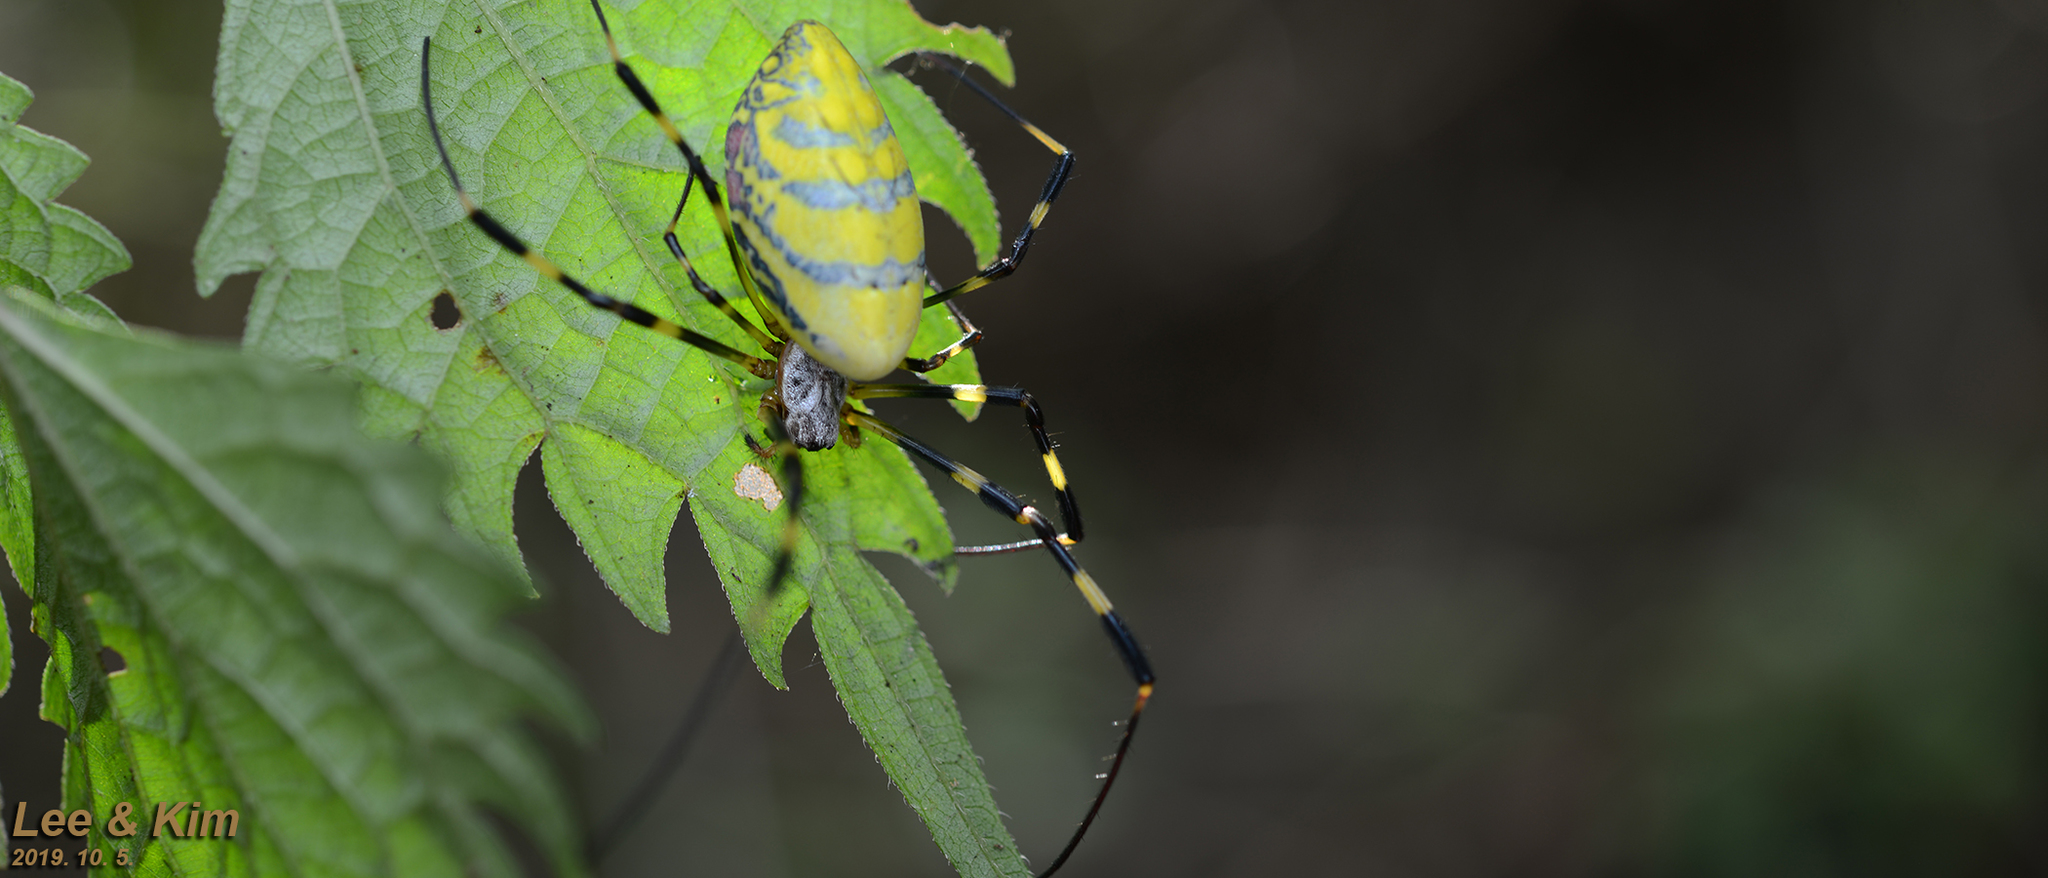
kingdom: Animalia
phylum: Arthropoda
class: Arachnida
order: Araneae
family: Araneidae
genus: Trichonephila
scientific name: Trichonephila clavata
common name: Jorō spider
